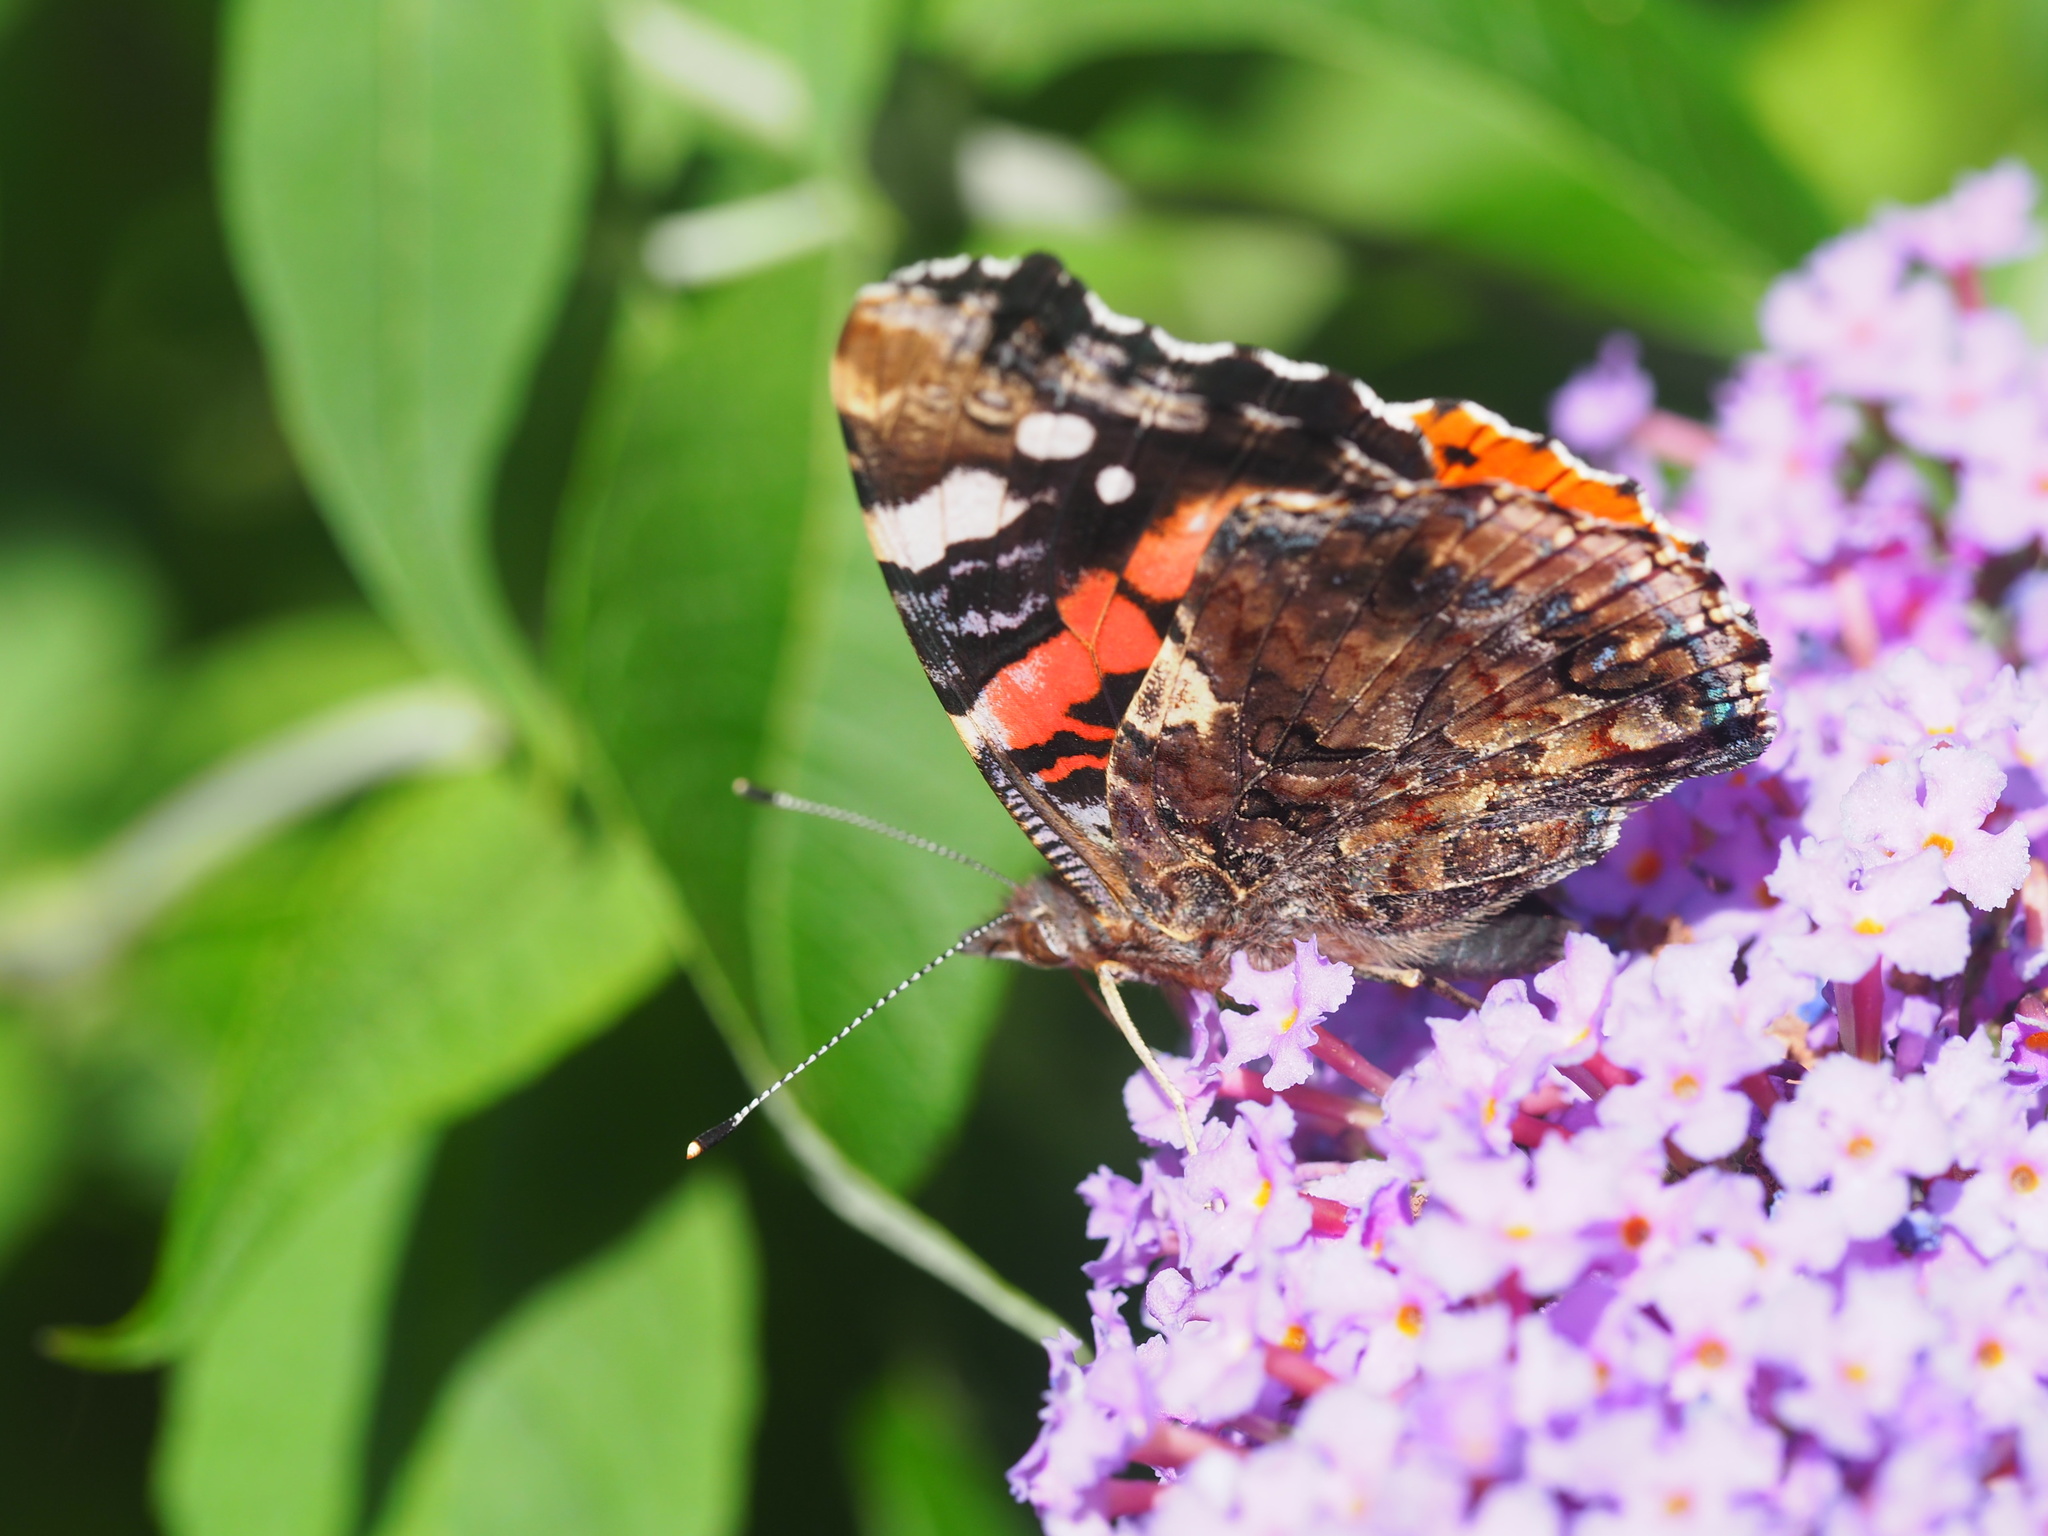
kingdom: Animalia
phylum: Arthropoda
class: Insecta
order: Lepidoptera
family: Nymphalidae
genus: Vanessa
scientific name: Vanessa atalanta
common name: Red admiral
